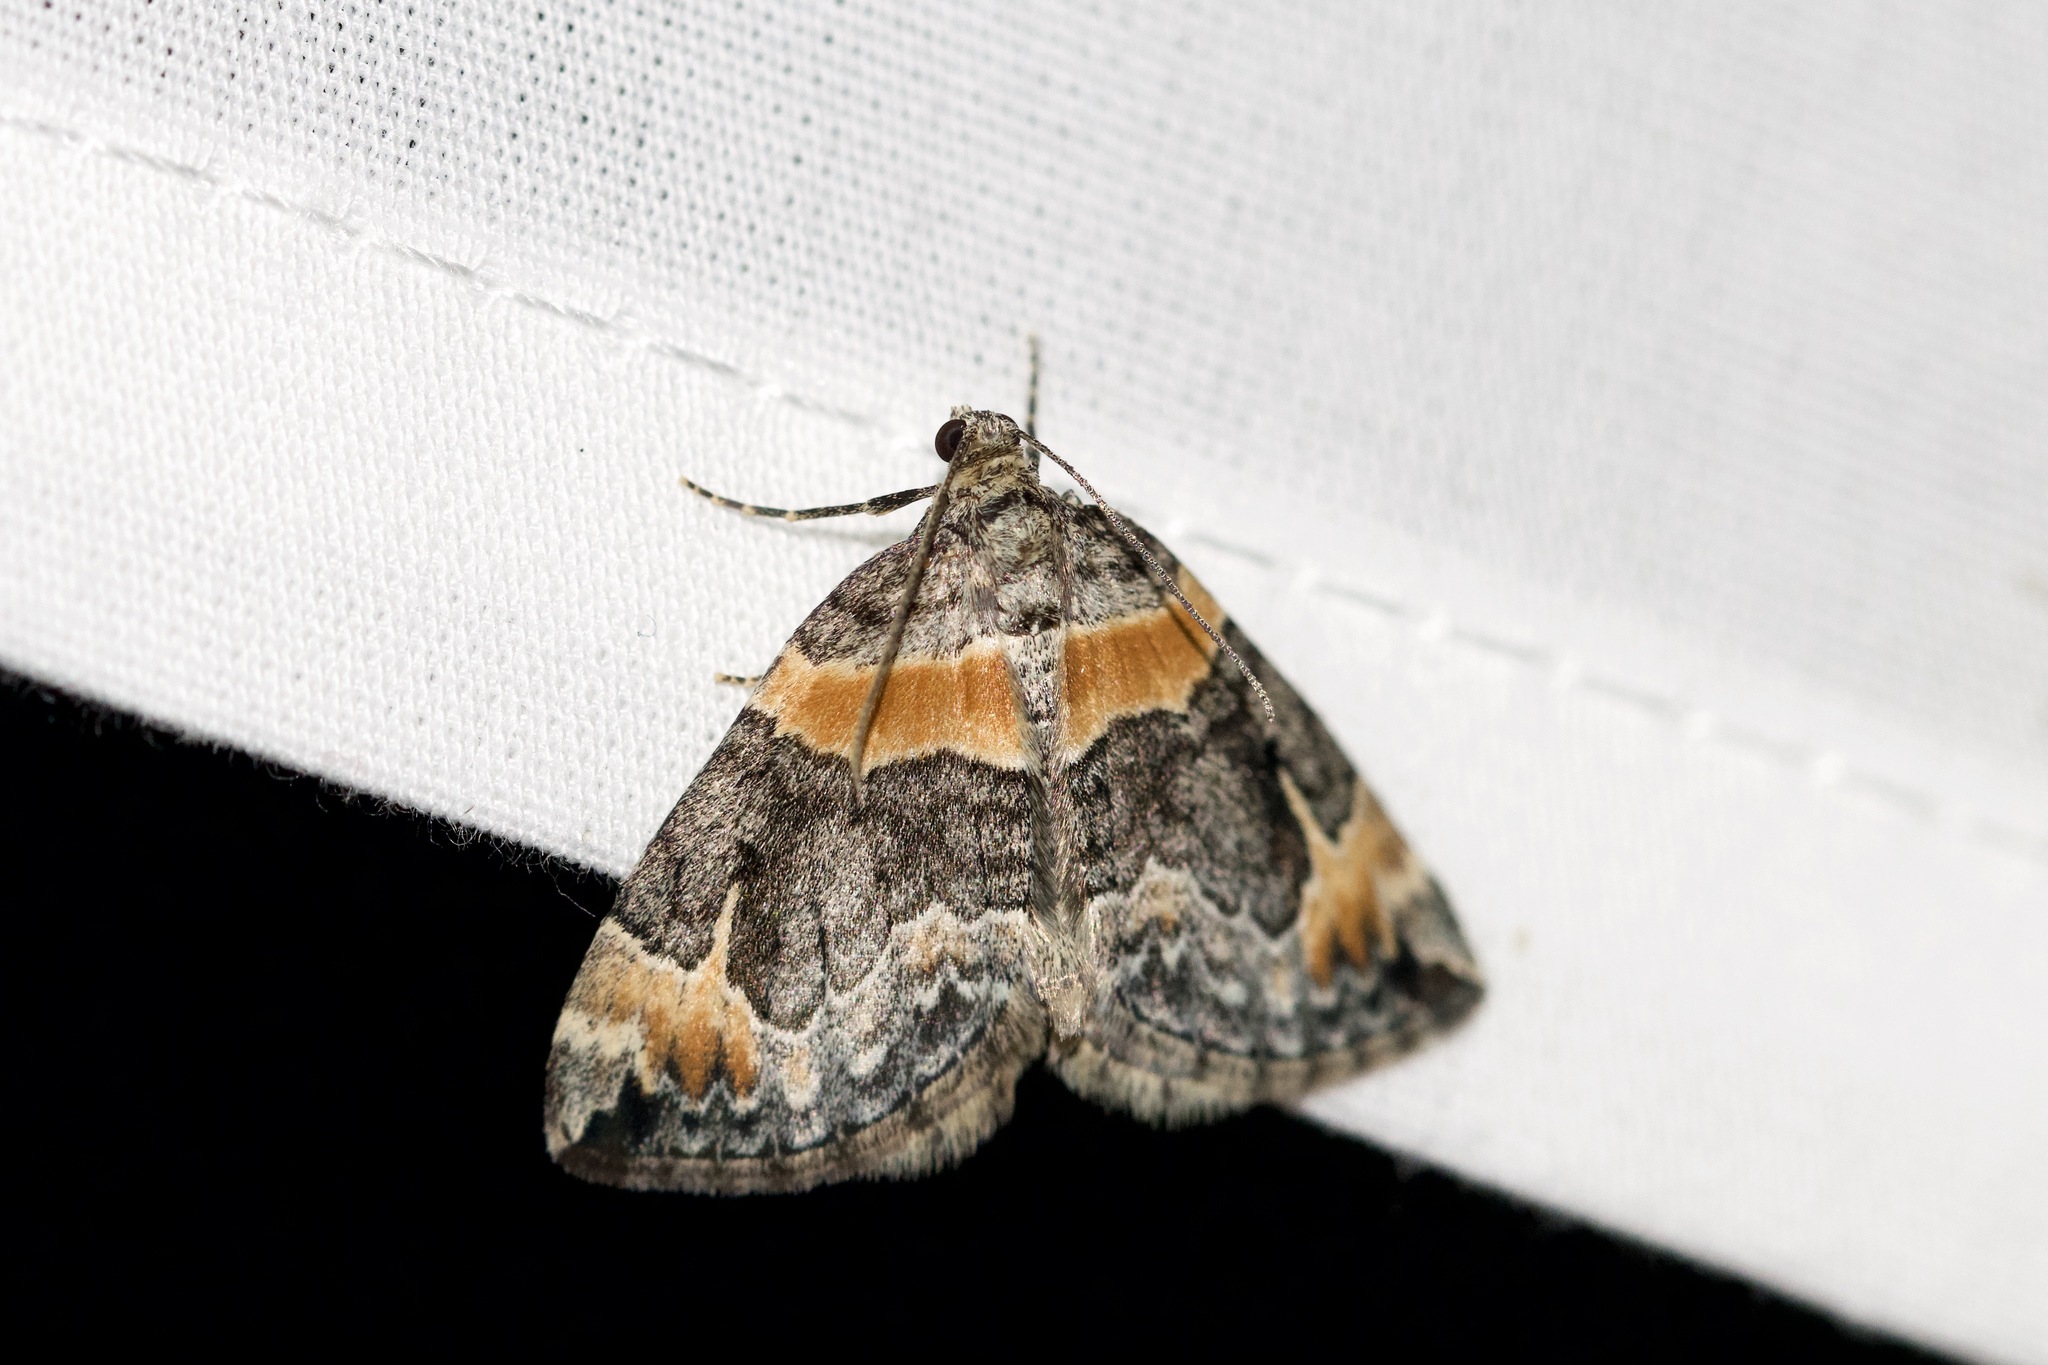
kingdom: Animalia
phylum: Arthropoda
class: Insecta
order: Lepidoptera
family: Geometridae
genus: Dysstroma
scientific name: Dysstroma hersiliata
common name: Orange-barred carpet
